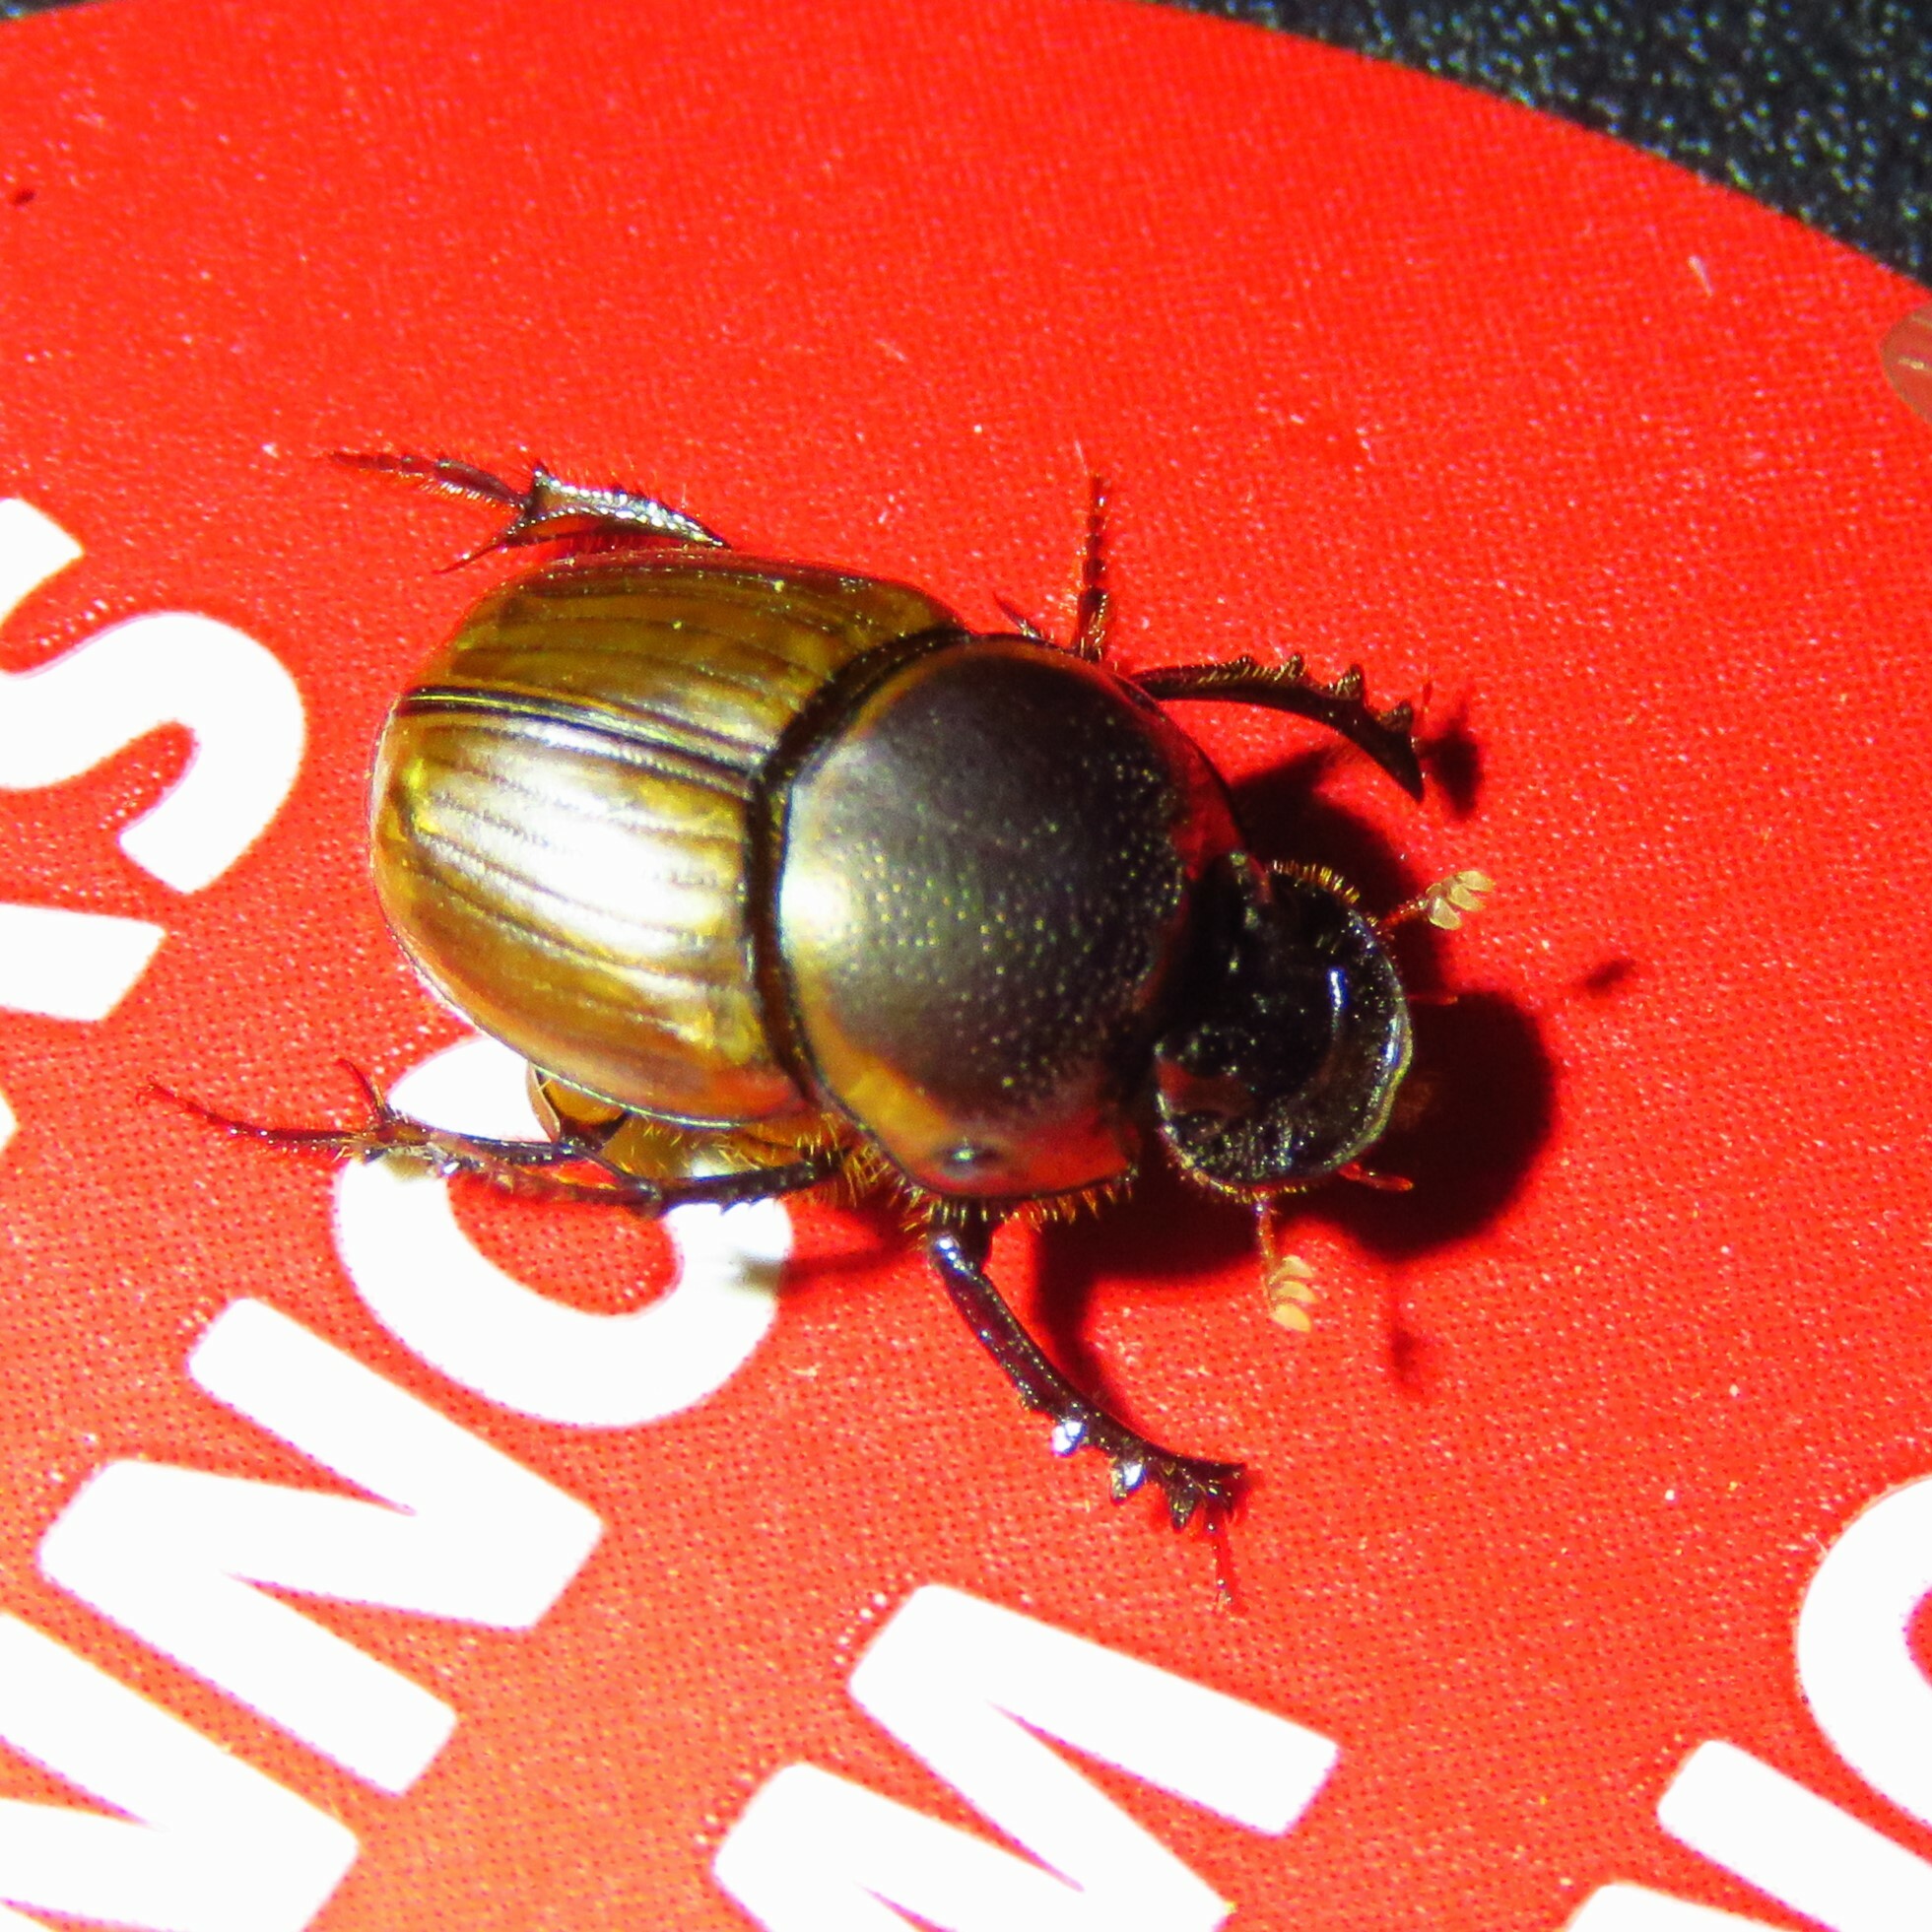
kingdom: Animalia
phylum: Arthropoda
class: Insecta
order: Coleoptera
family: Scarabaeidae
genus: Digitonthophagus
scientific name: Digitonthophagus gazella
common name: Brown dung beetle
